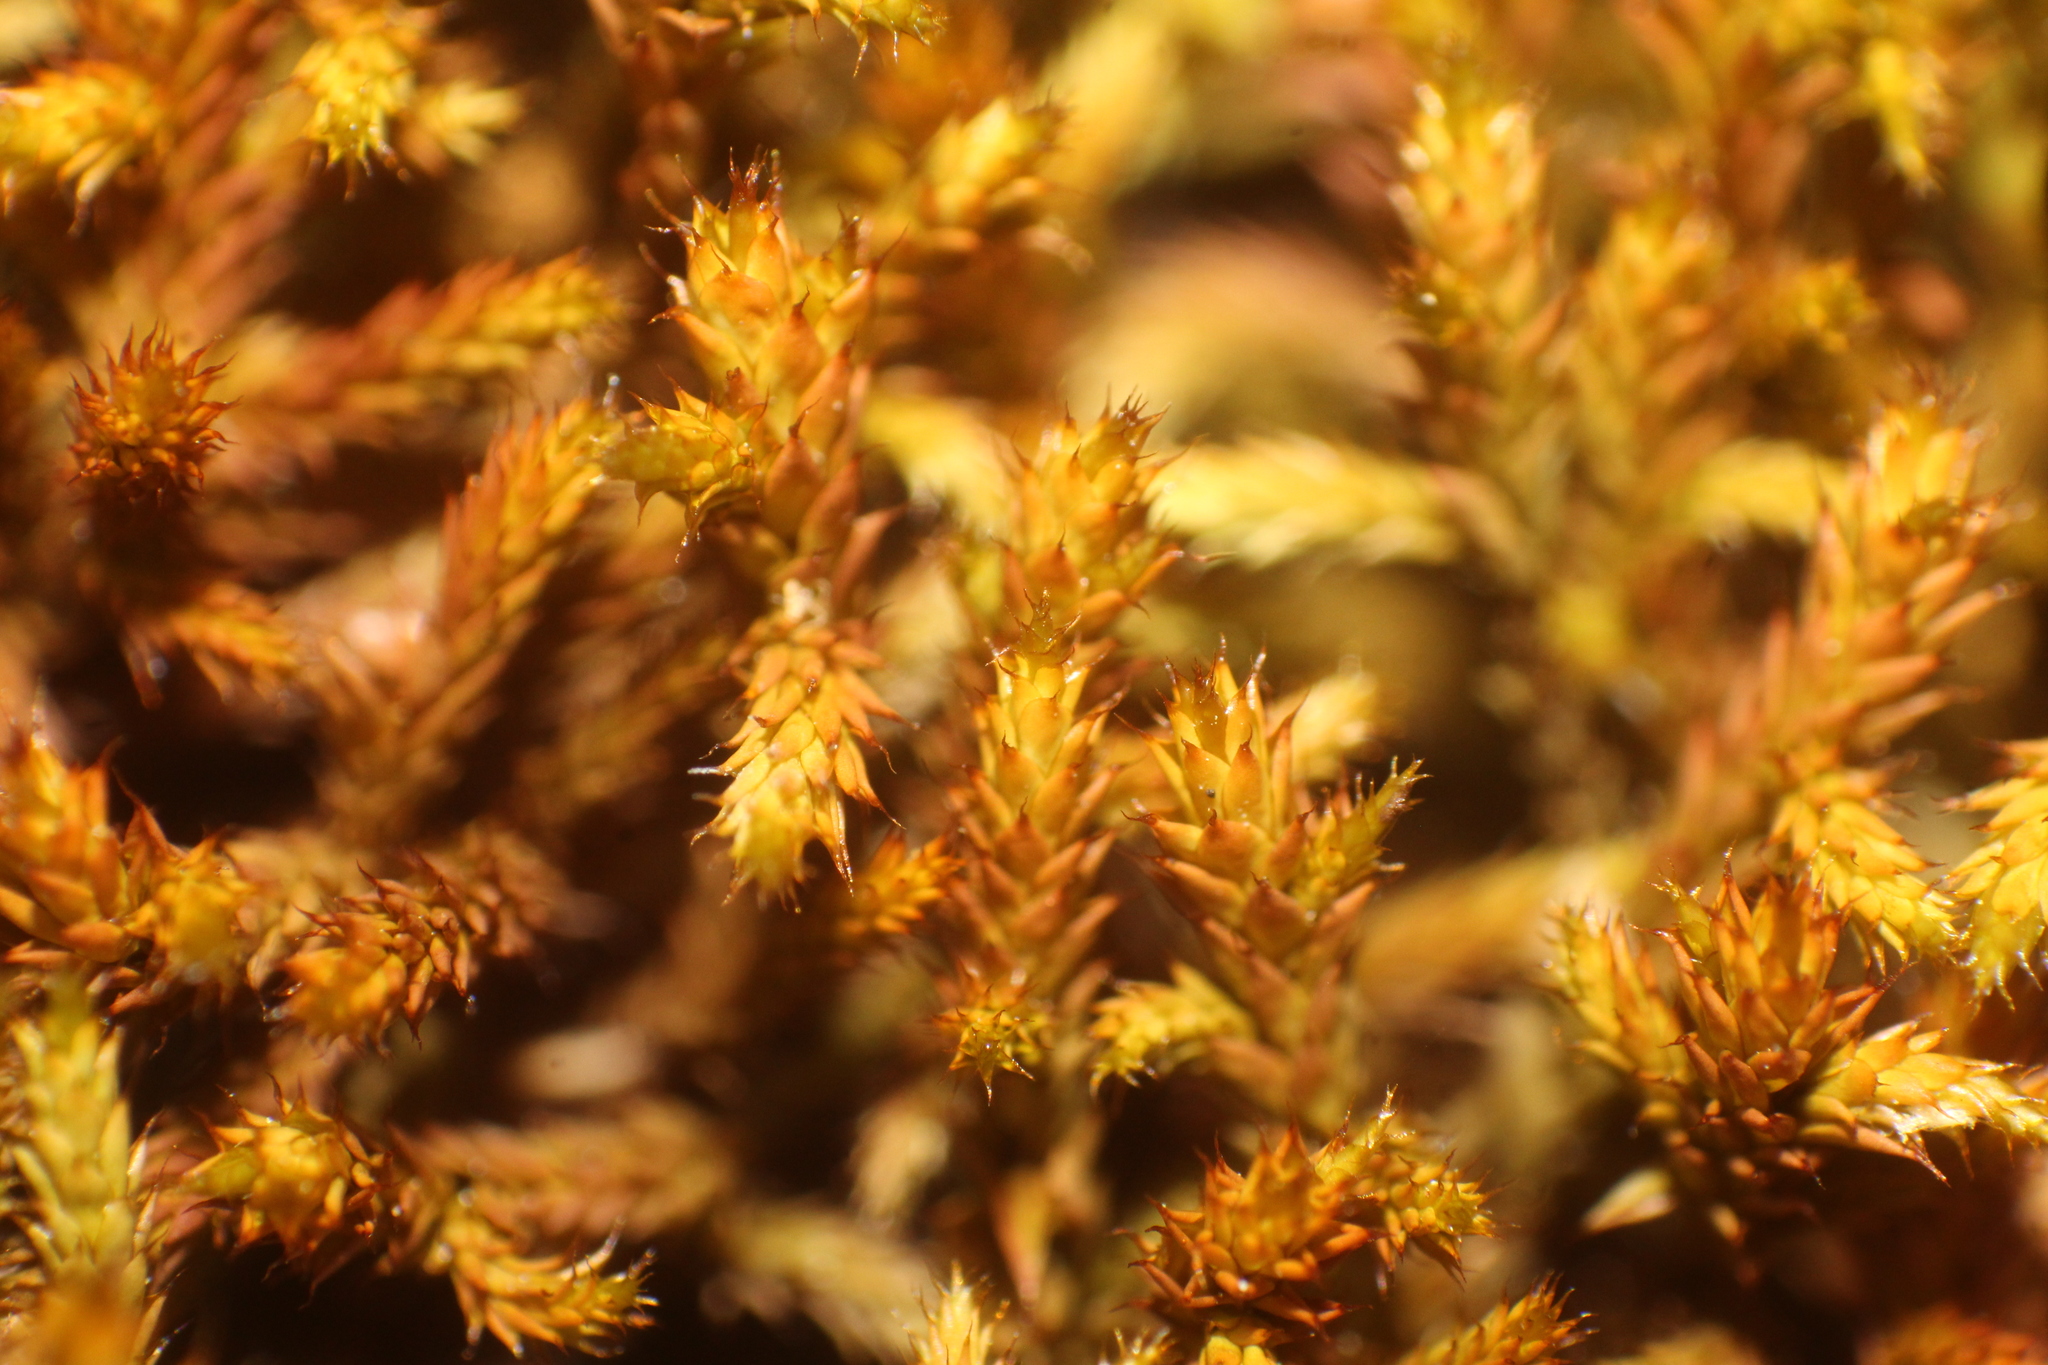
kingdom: Plantae
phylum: Bryophyta
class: Bryopsida
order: Hedwigiales
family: Hedwigiaceae
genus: Rhacocarpus
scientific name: Rhacocarpus purpurascens
